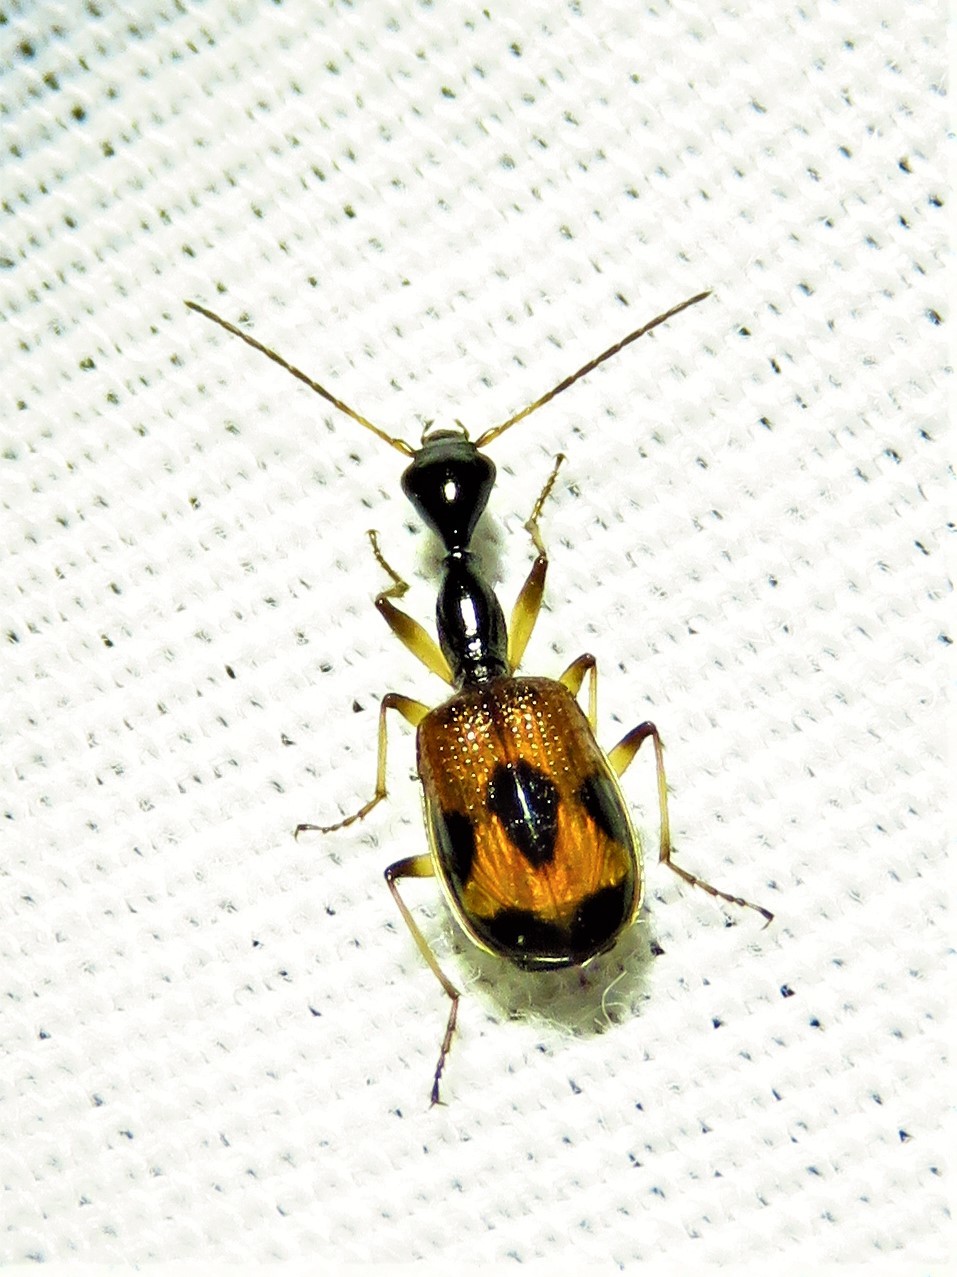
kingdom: Animalia
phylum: Arthropoda
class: Insecta
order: Coleoptera
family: Carabidae
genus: Colliuris
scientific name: Colliuris pensylvanica
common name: Long-necked ground beetle
